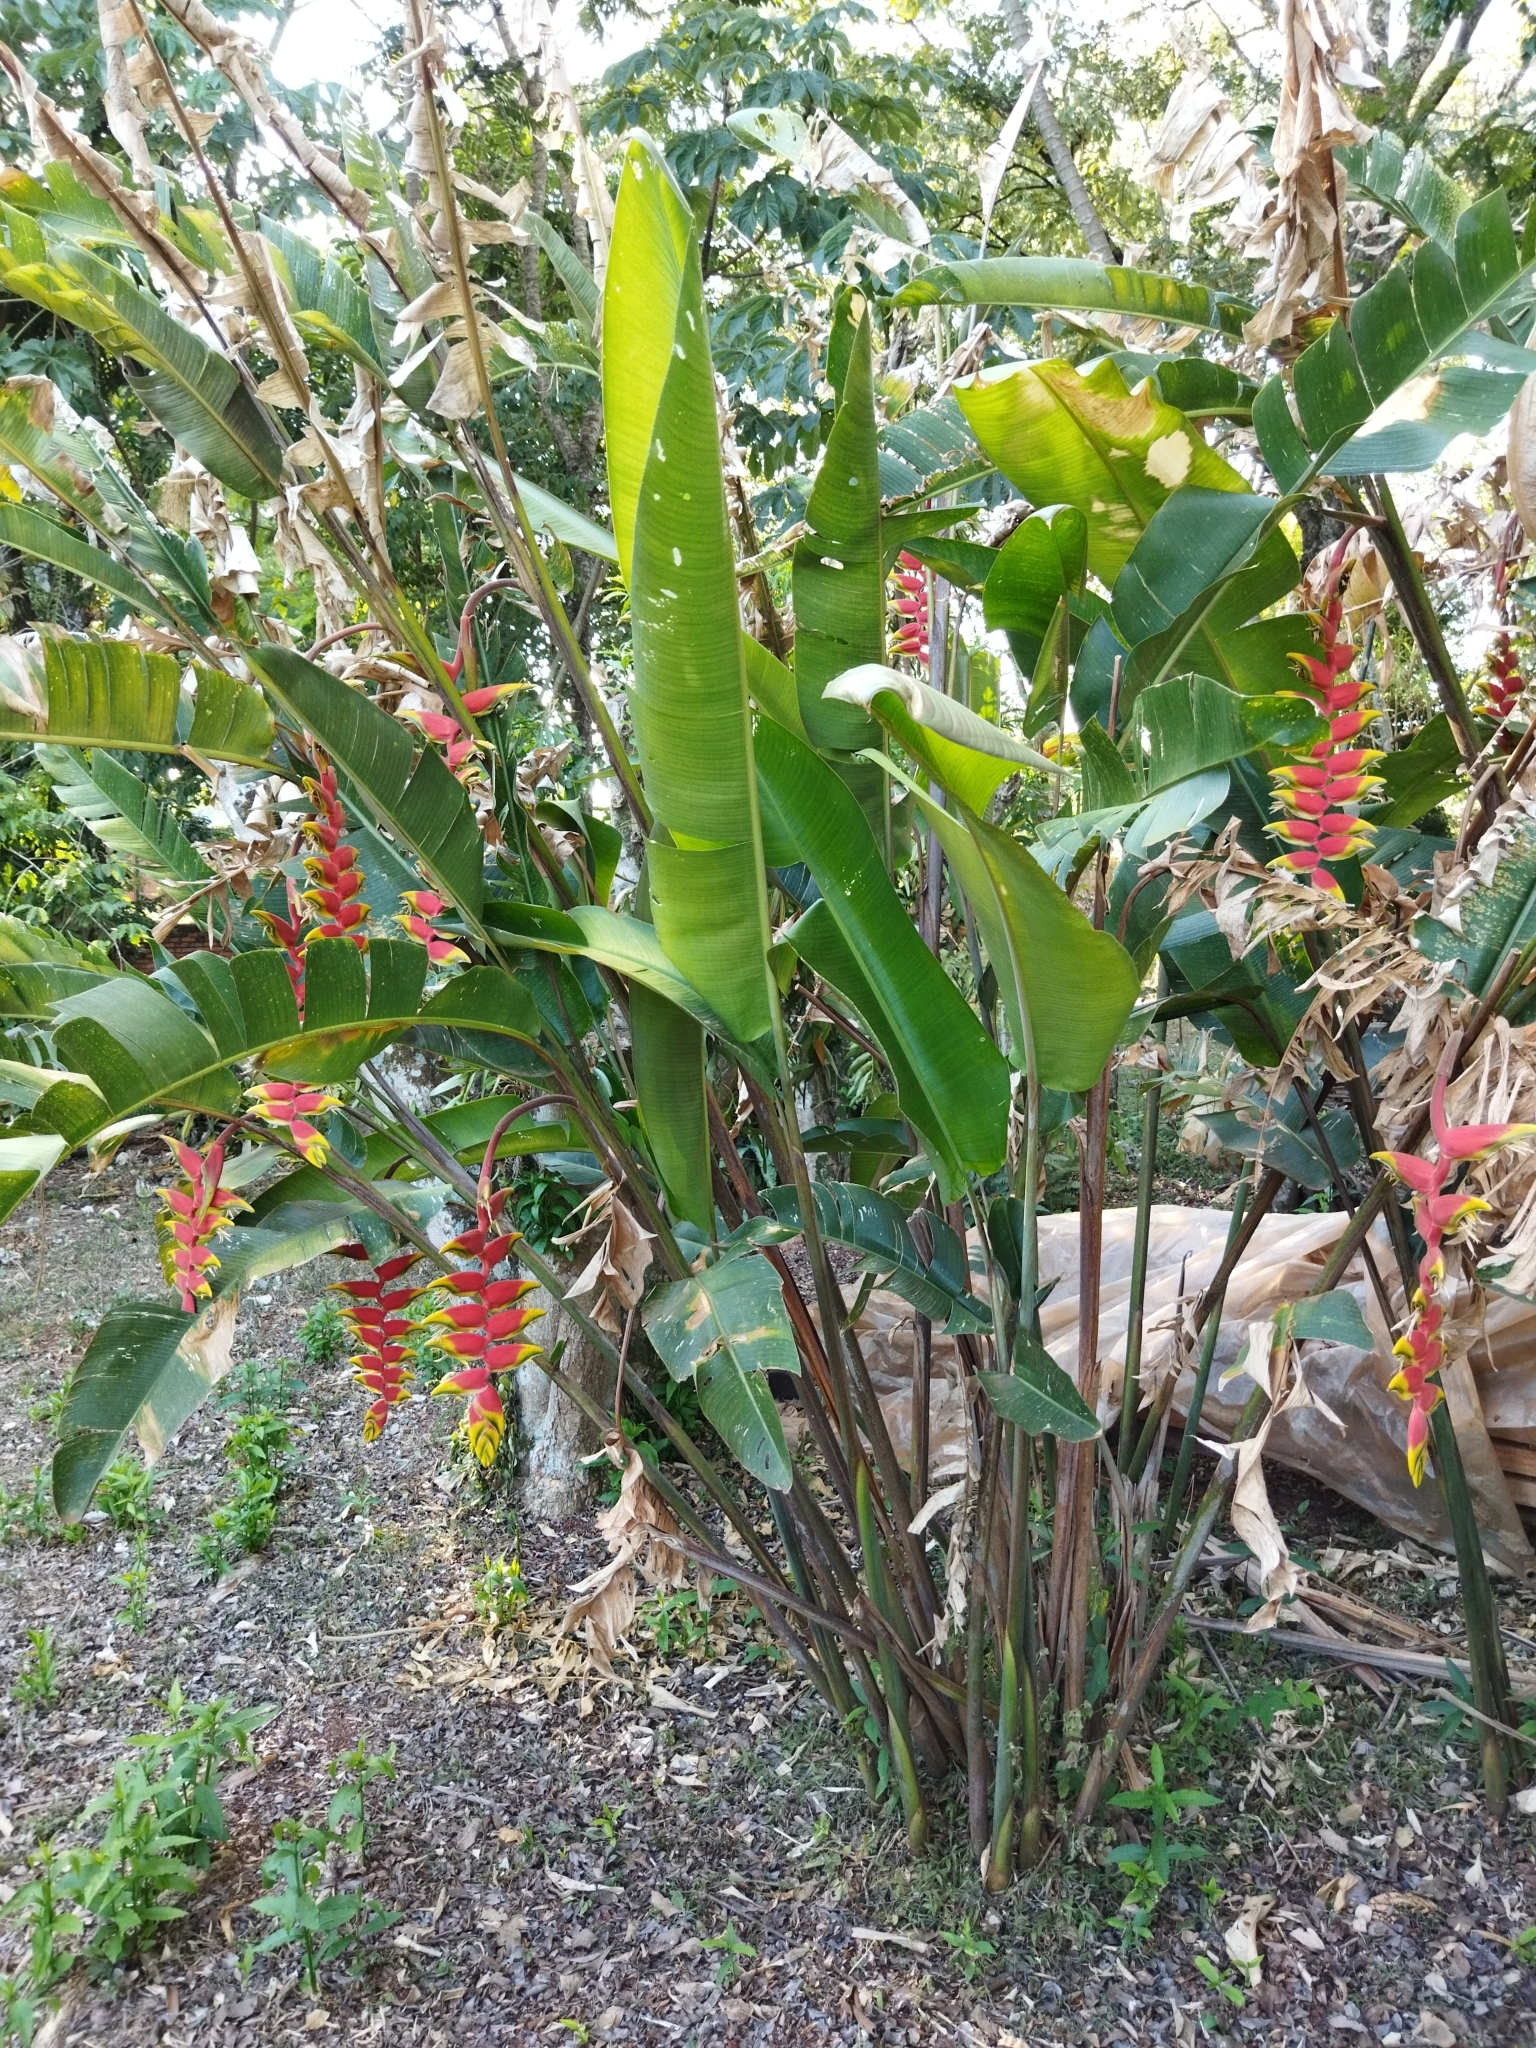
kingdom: Plantae
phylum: Tracheophyta
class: Liliopsida
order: Zingiberales
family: Heliconiaceae
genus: Heliconia
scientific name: Heliconia rostrata
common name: False bird of paradise
